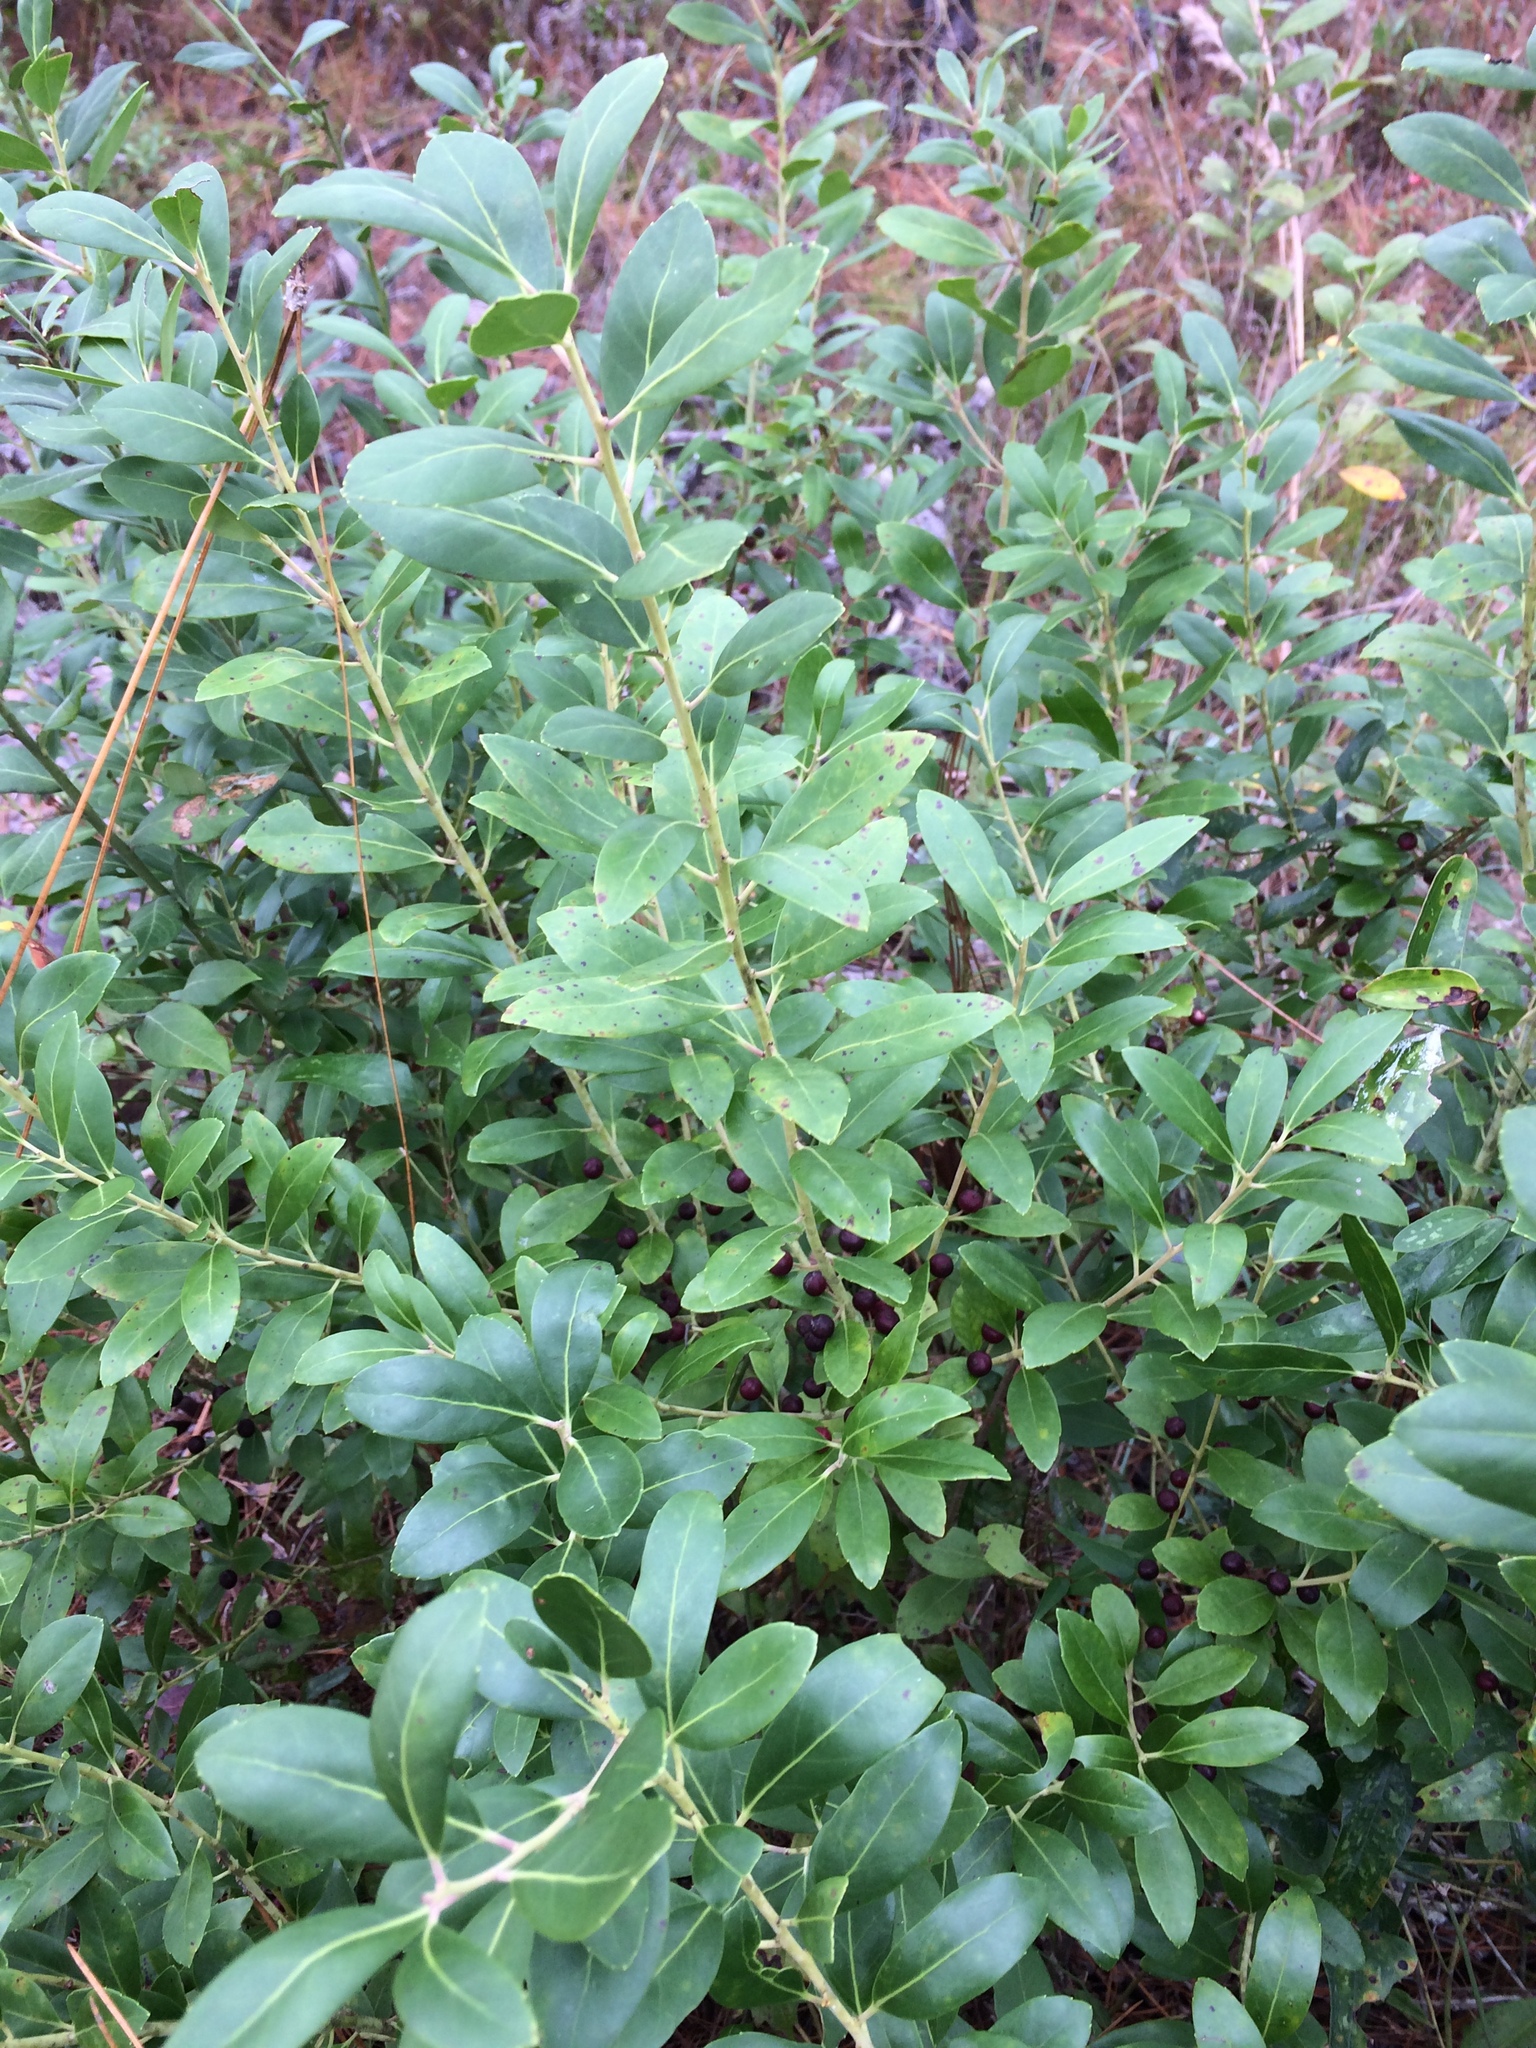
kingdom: Plantae
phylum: Tracheophyta
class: Magnoliopsida
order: Aquifoliales
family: Aquifoliaceae
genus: Ilex
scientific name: Ilex glabra
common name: Bitter gallberry
